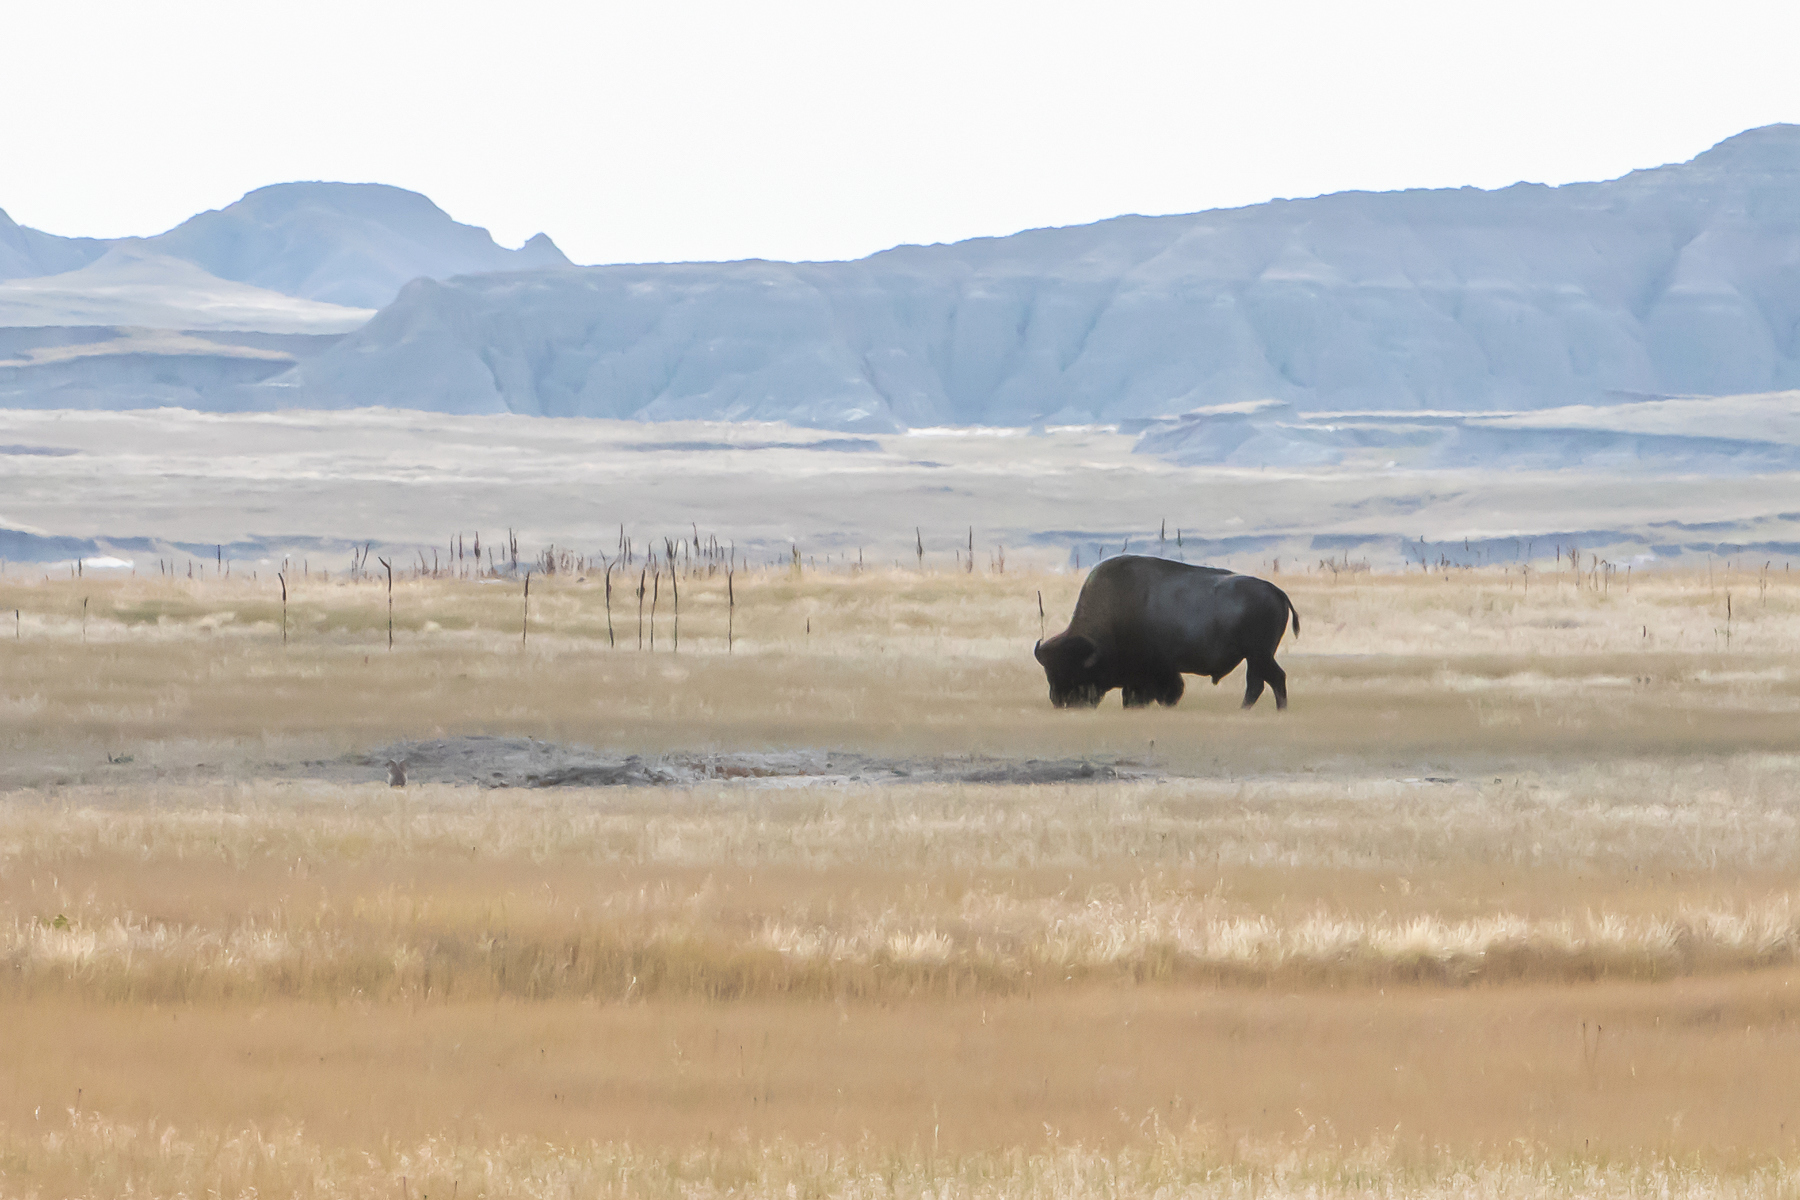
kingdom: Animalia
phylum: Chordata
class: Mammalia
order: Artiodactyla
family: Bovidae
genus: Bison
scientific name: Bison bison
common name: American bison
